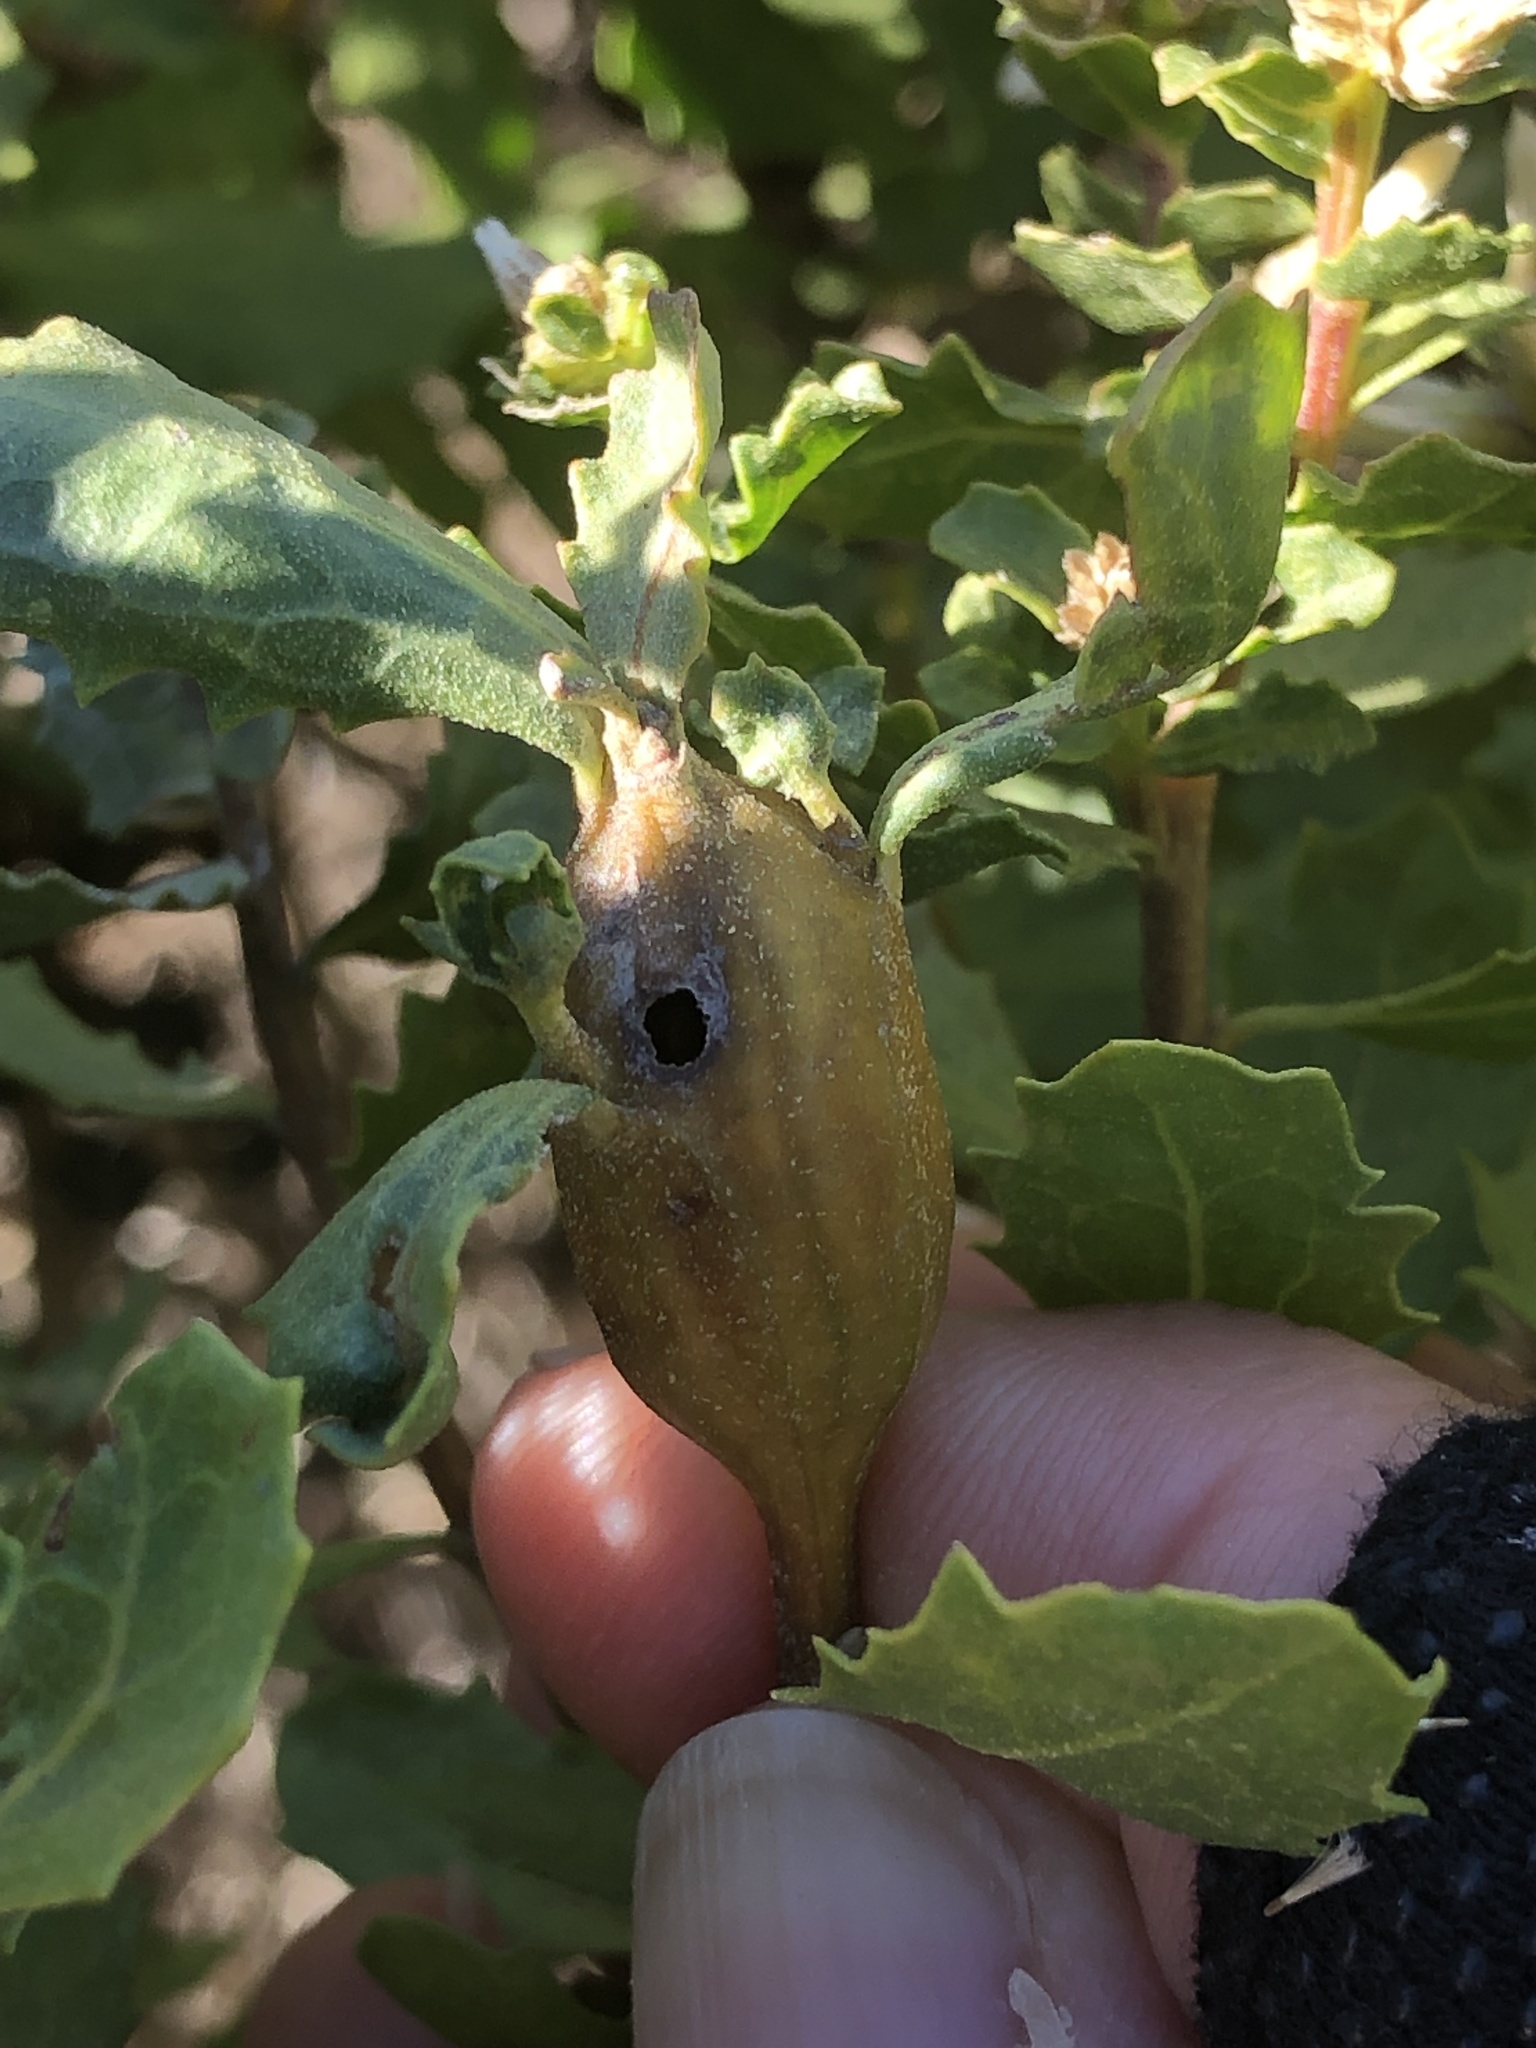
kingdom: Animalia
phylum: Arthropoda
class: Insecta
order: Lepidoptera
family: Gelechiidae
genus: Gnorimoschema
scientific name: Gnorimoschema baccharisella
